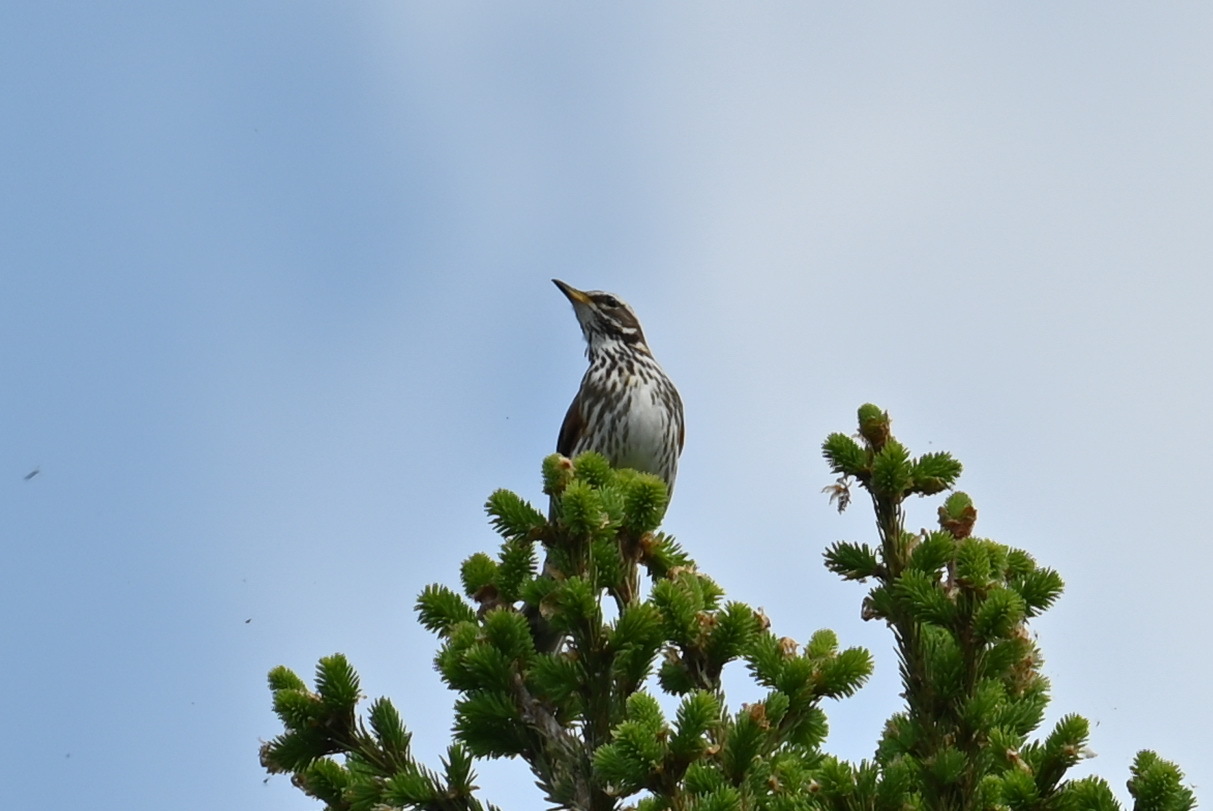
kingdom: Animalia
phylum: Chordata
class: Aves
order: Passeriformes
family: Turdidae
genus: Turdus
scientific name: Turdus iliacus
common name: Redwing
